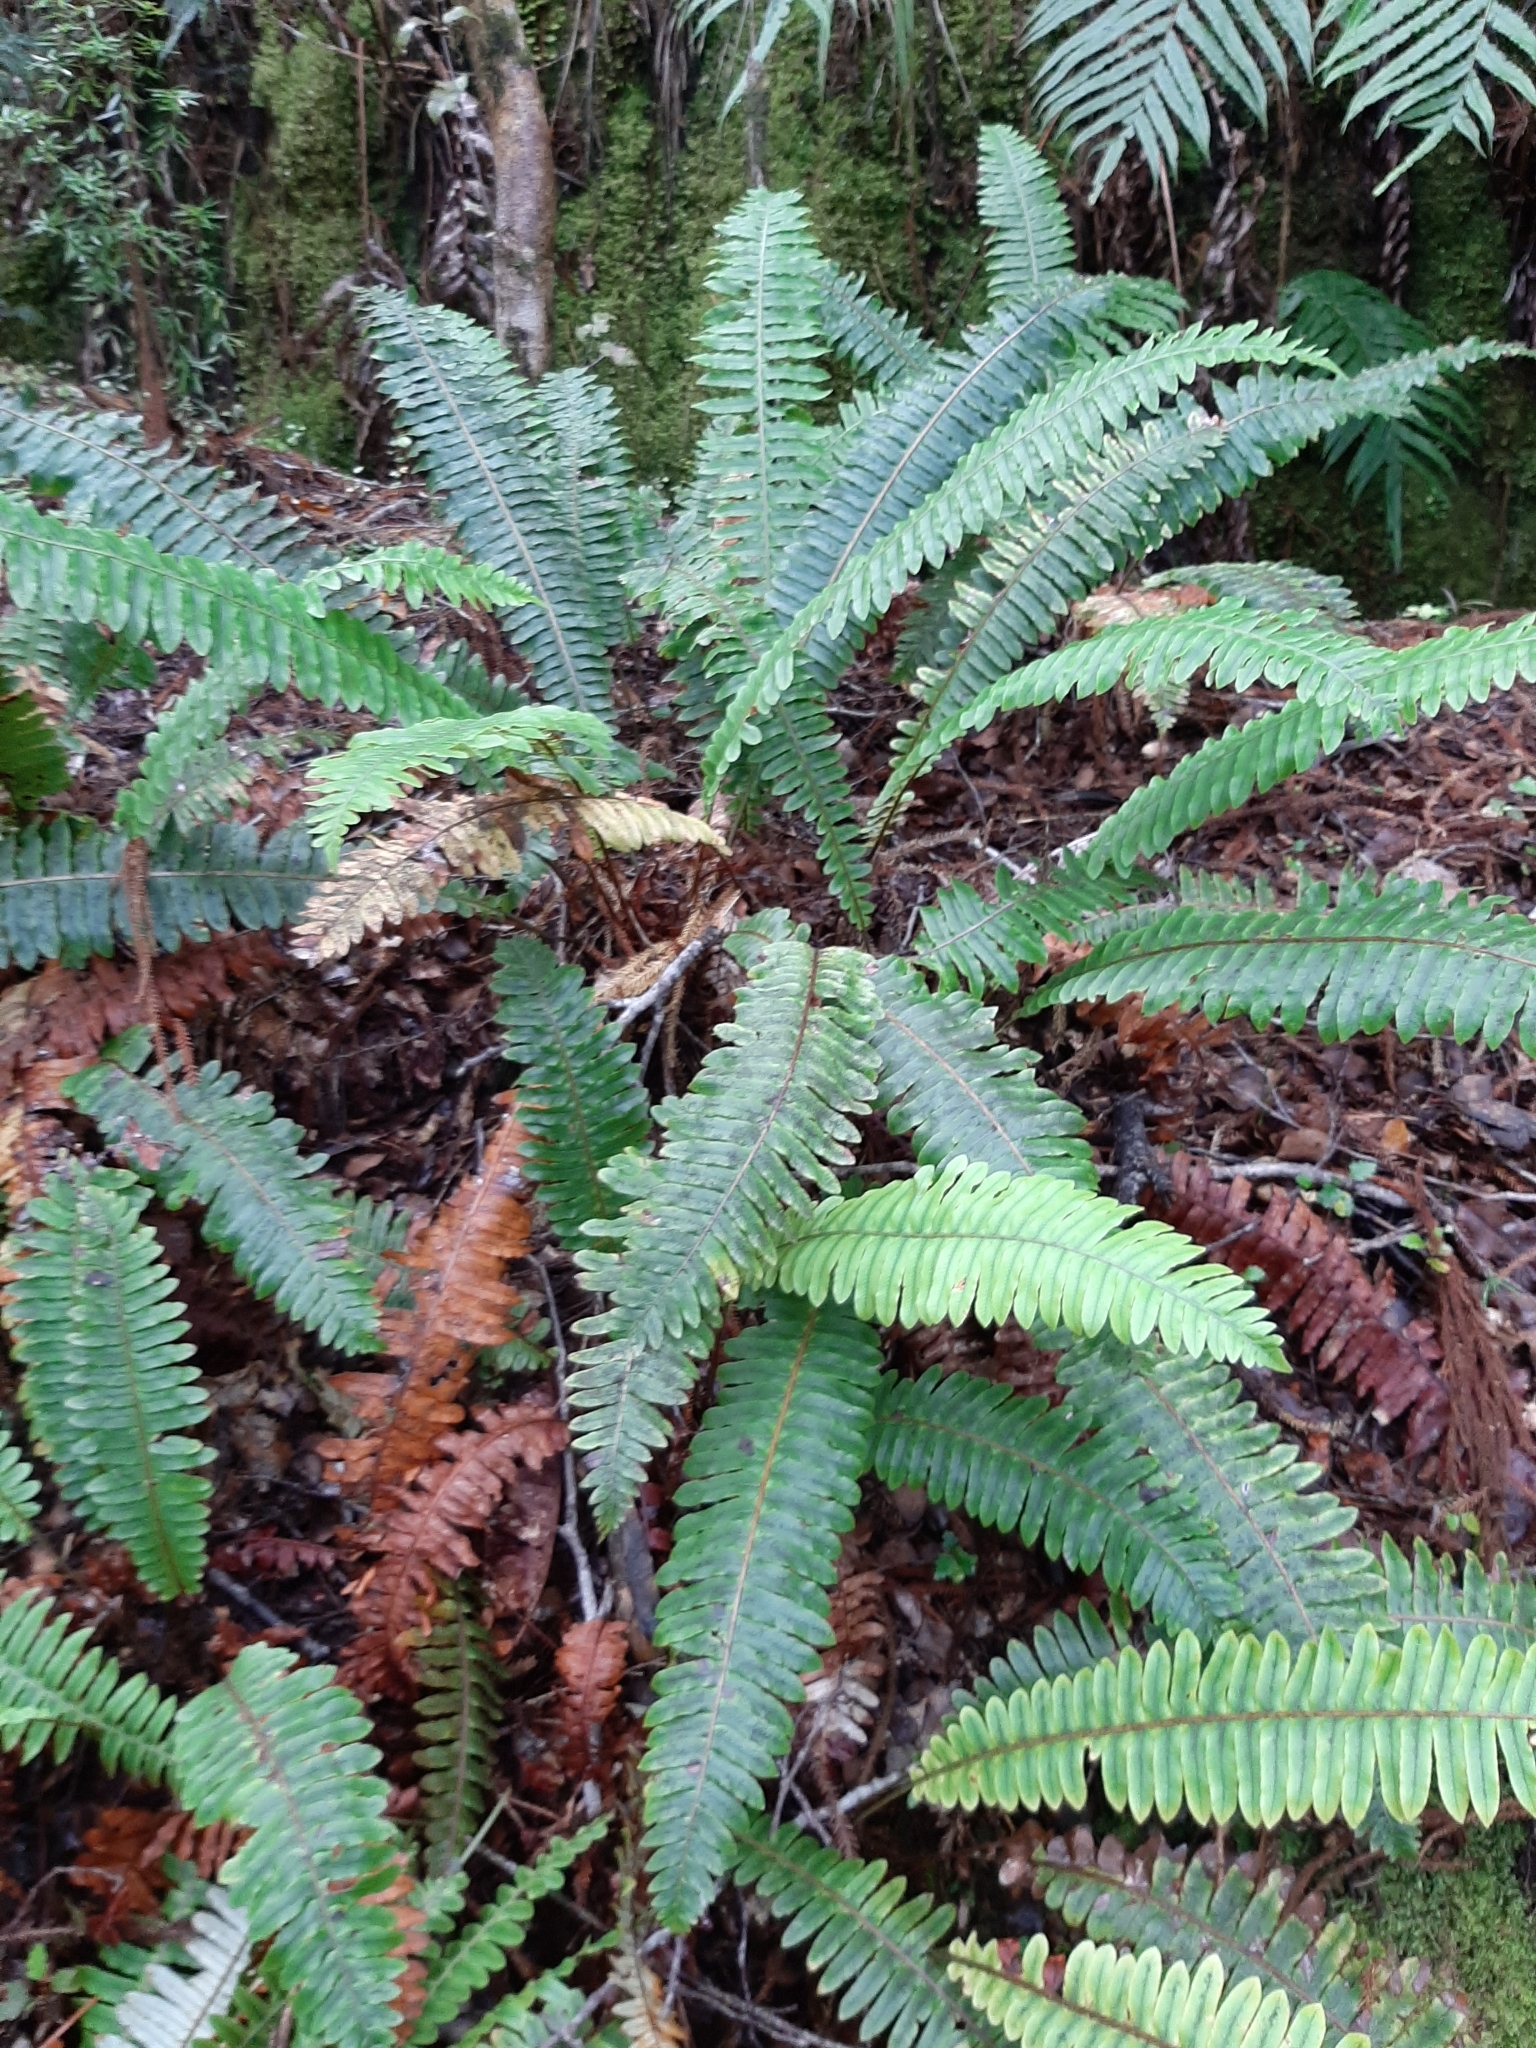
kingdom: Plantae
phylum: Tracheophyta
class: Polypodiopsida
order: Polypodiales
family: Blechnaceae
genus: Lomaria
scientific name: Lomaria discolor
